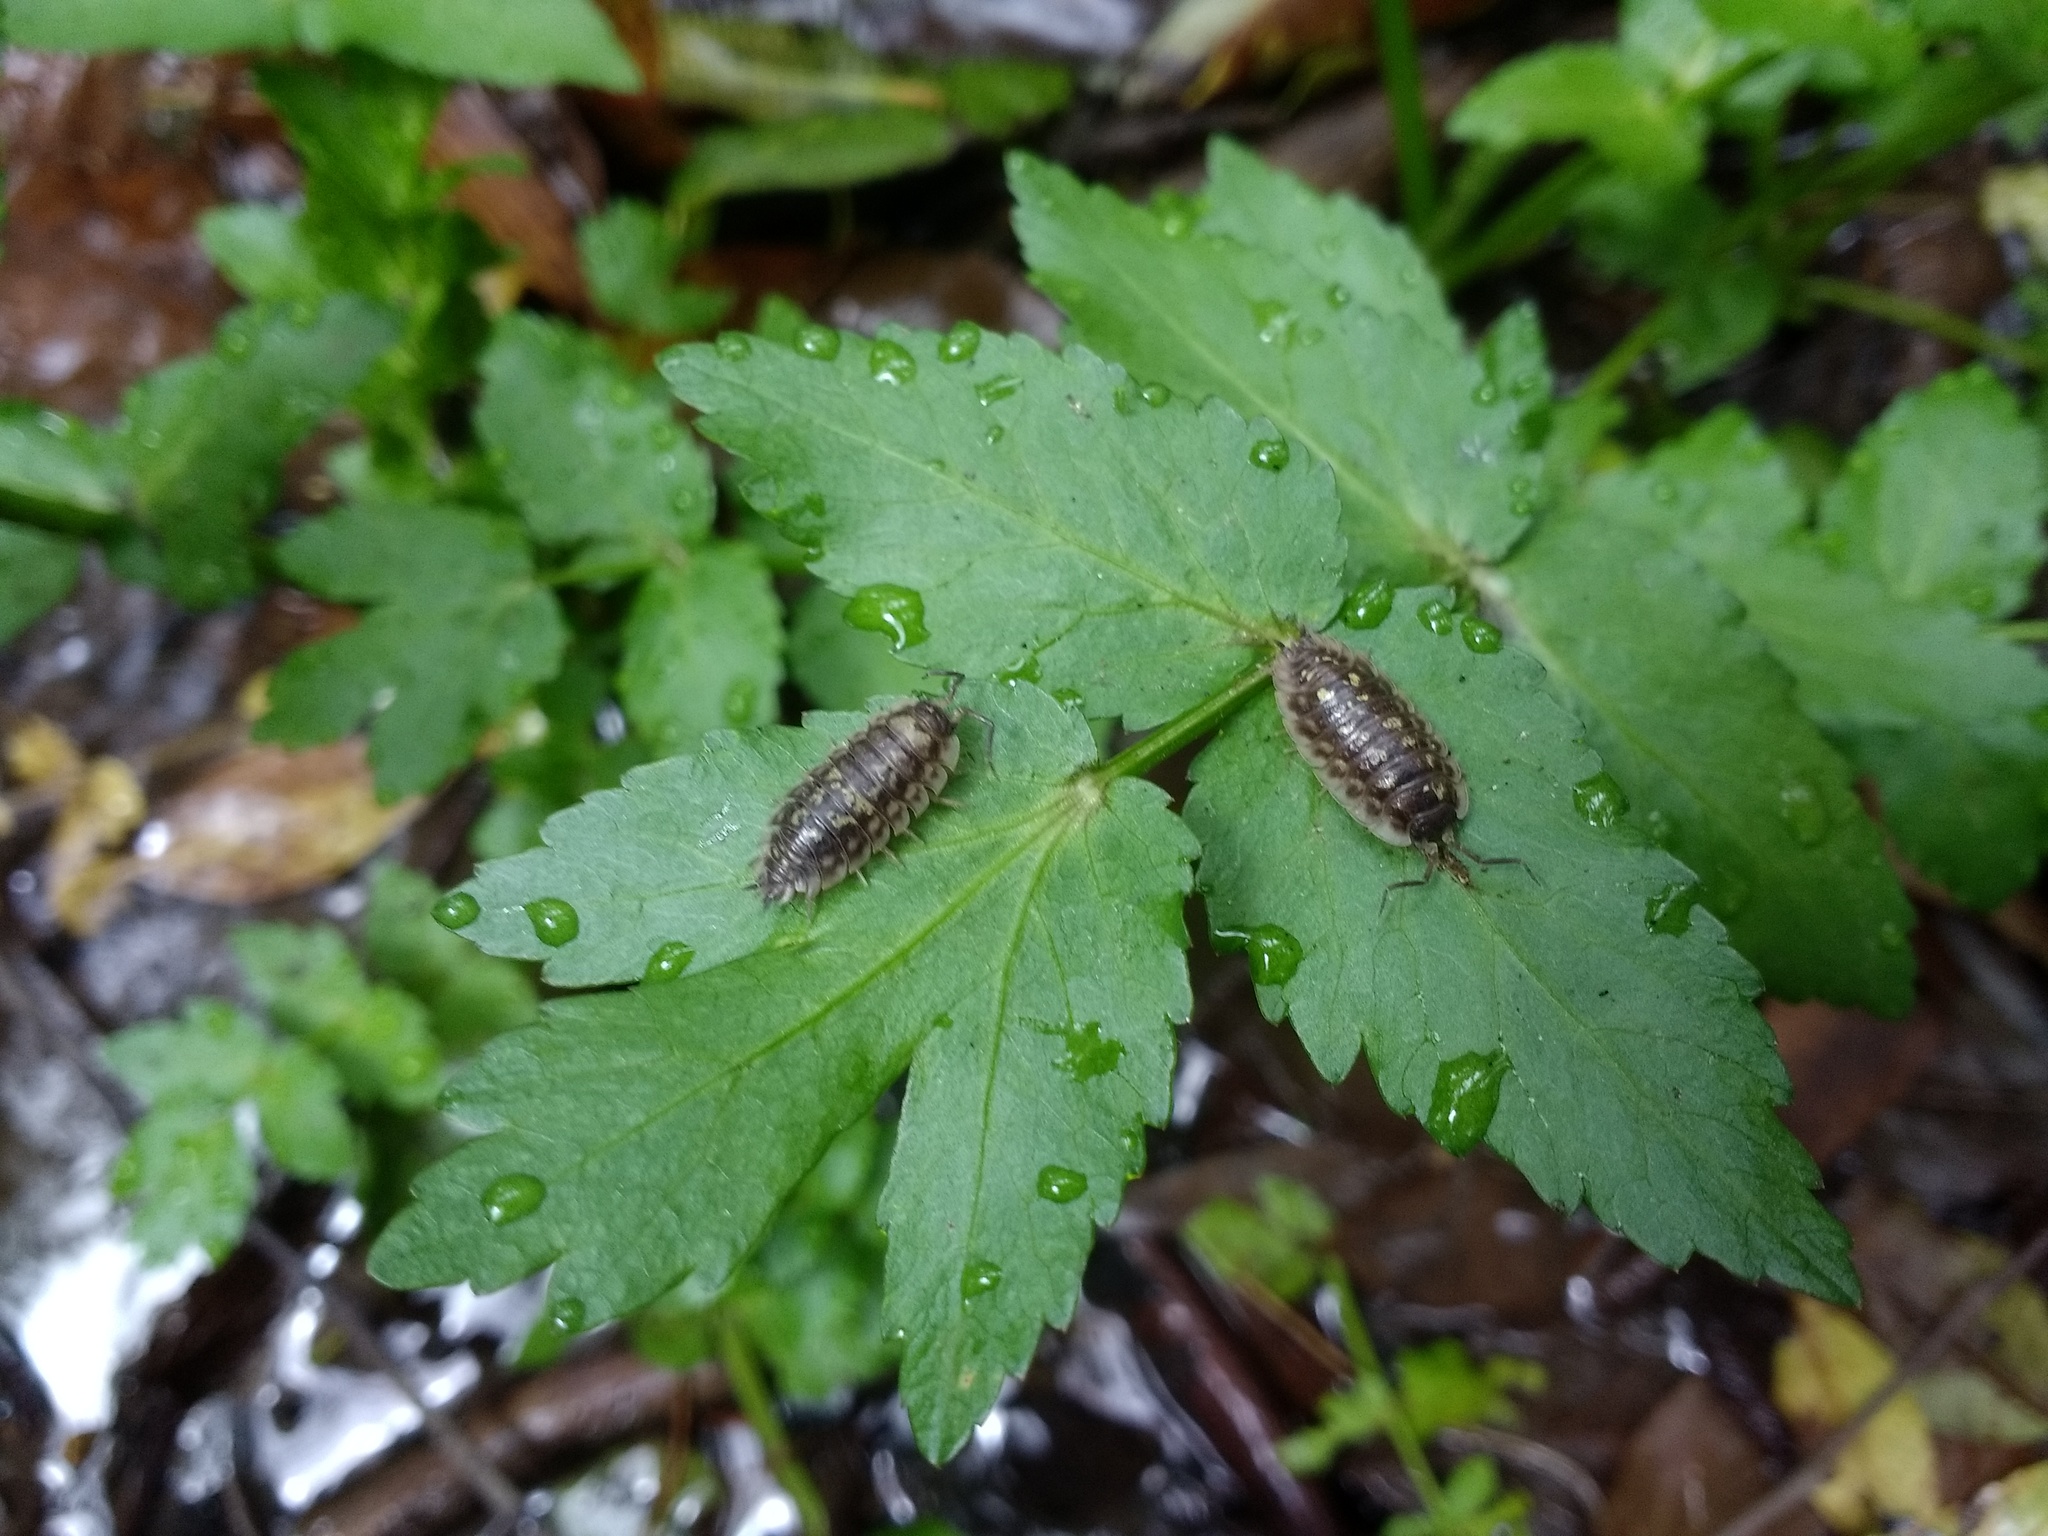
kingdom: Animalia
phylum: Arthropoda
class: Malacostraca
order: Isopoda
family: Oniscidae
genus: Oniscus
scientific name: Oniscus asellus
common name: Common shiny woodlouse
